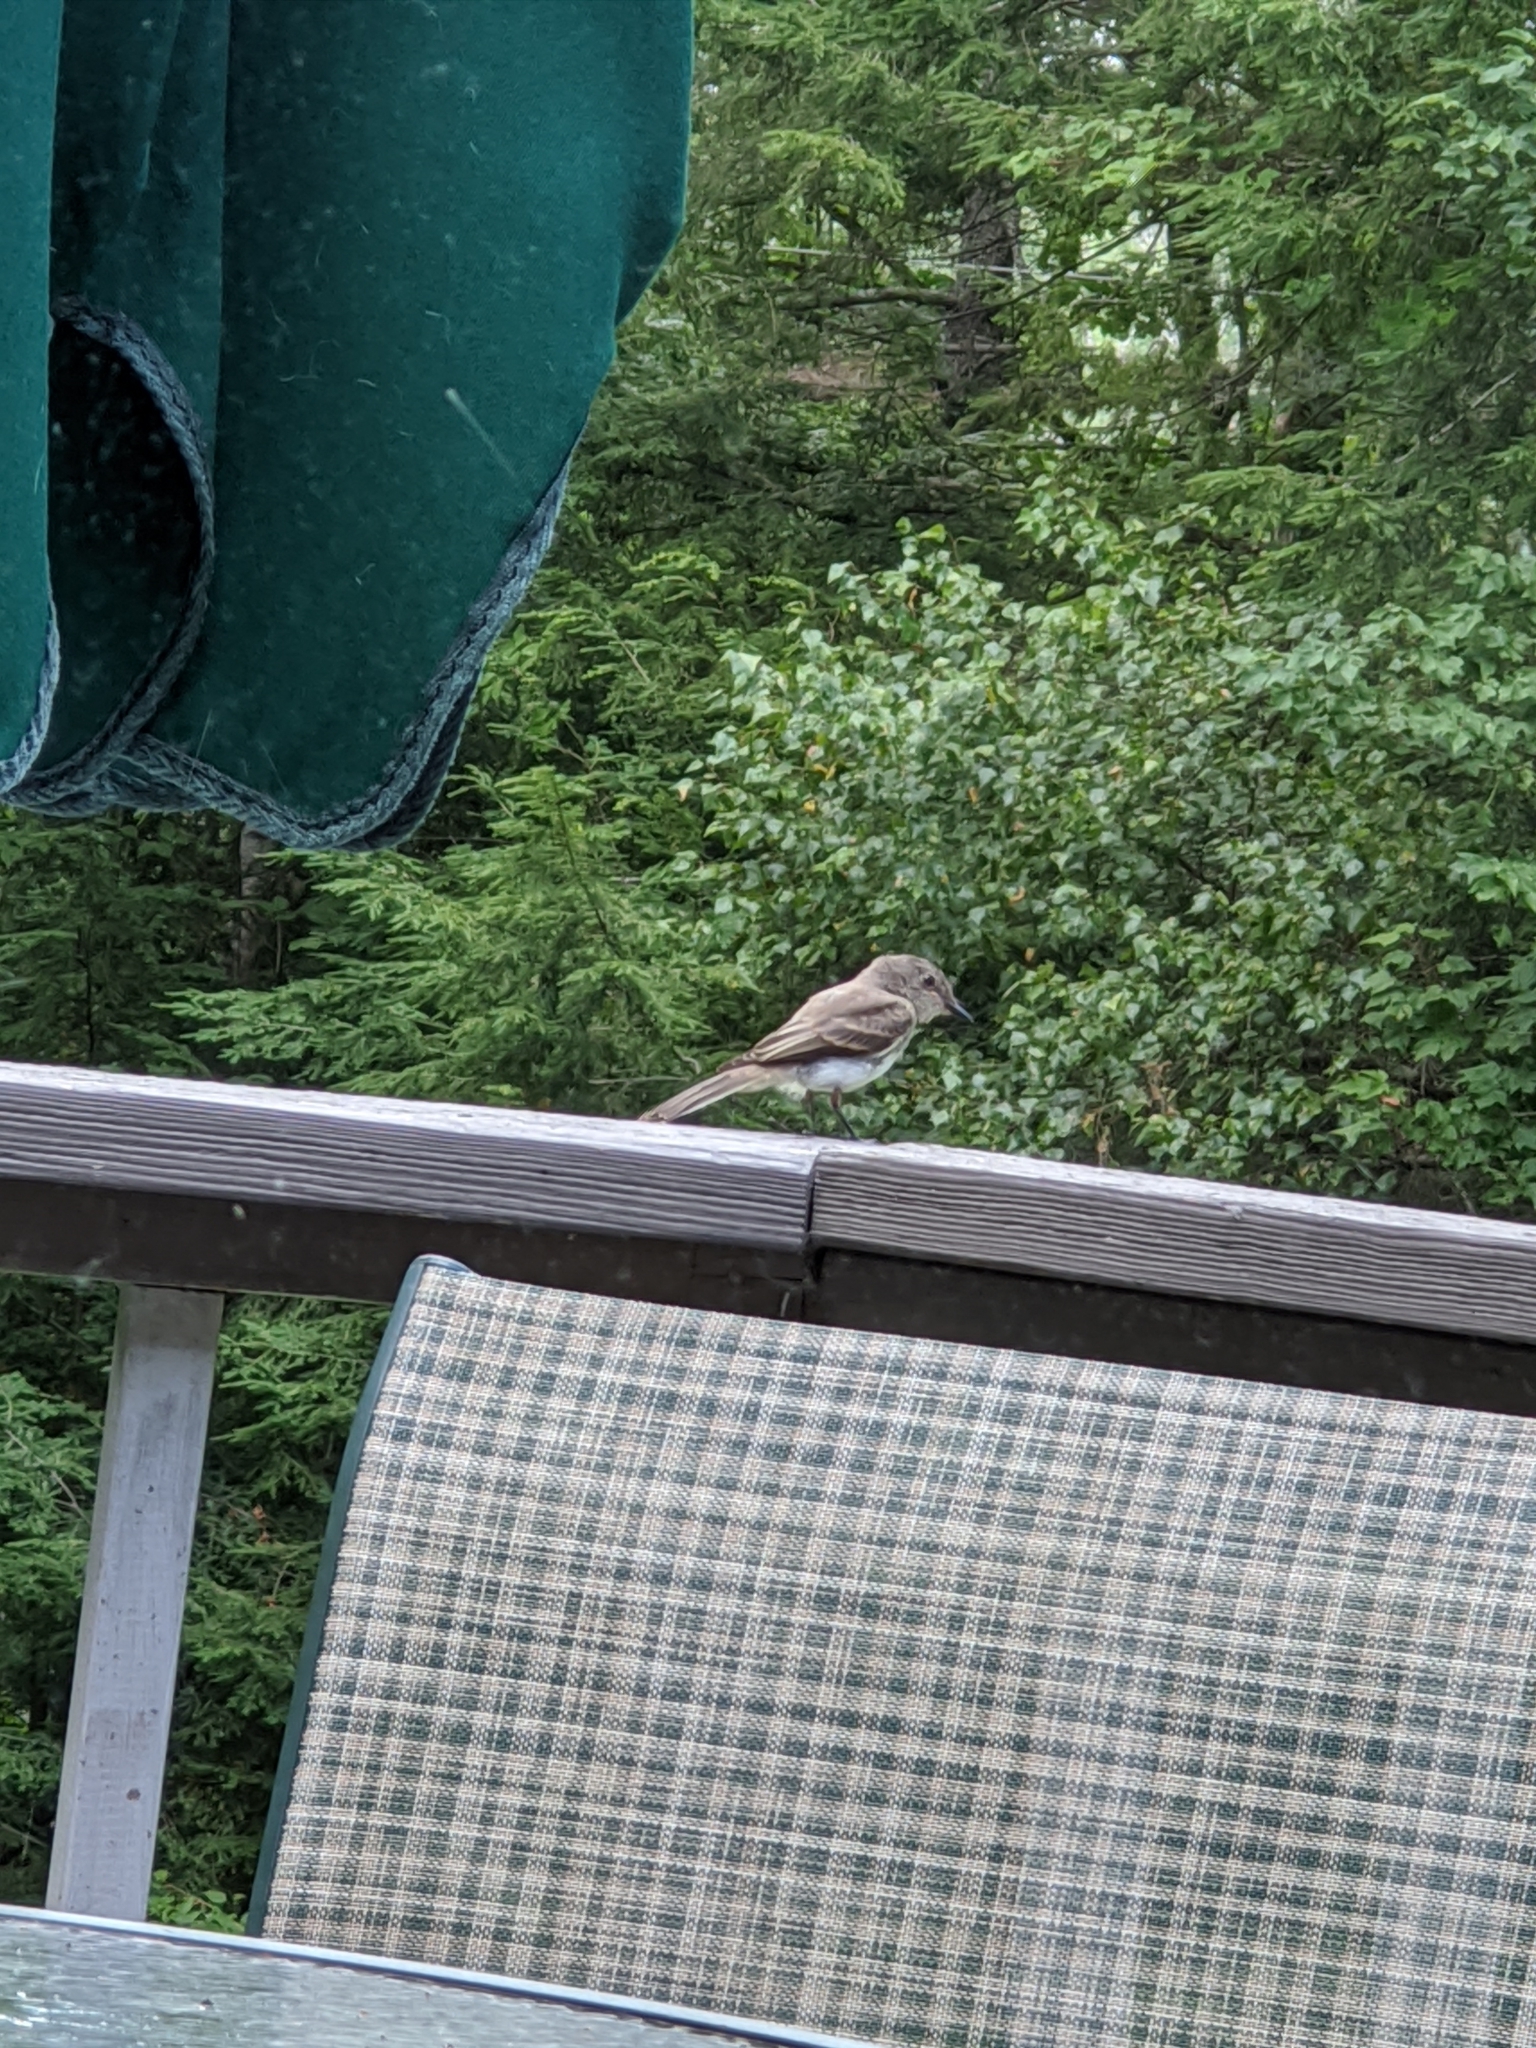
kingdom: Animalia
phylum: Chordata
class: Aves
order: Passeriformes
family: Tyrannidae
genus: Sayornis
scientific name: Sayornis phoebe
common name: Eastern phoebe
